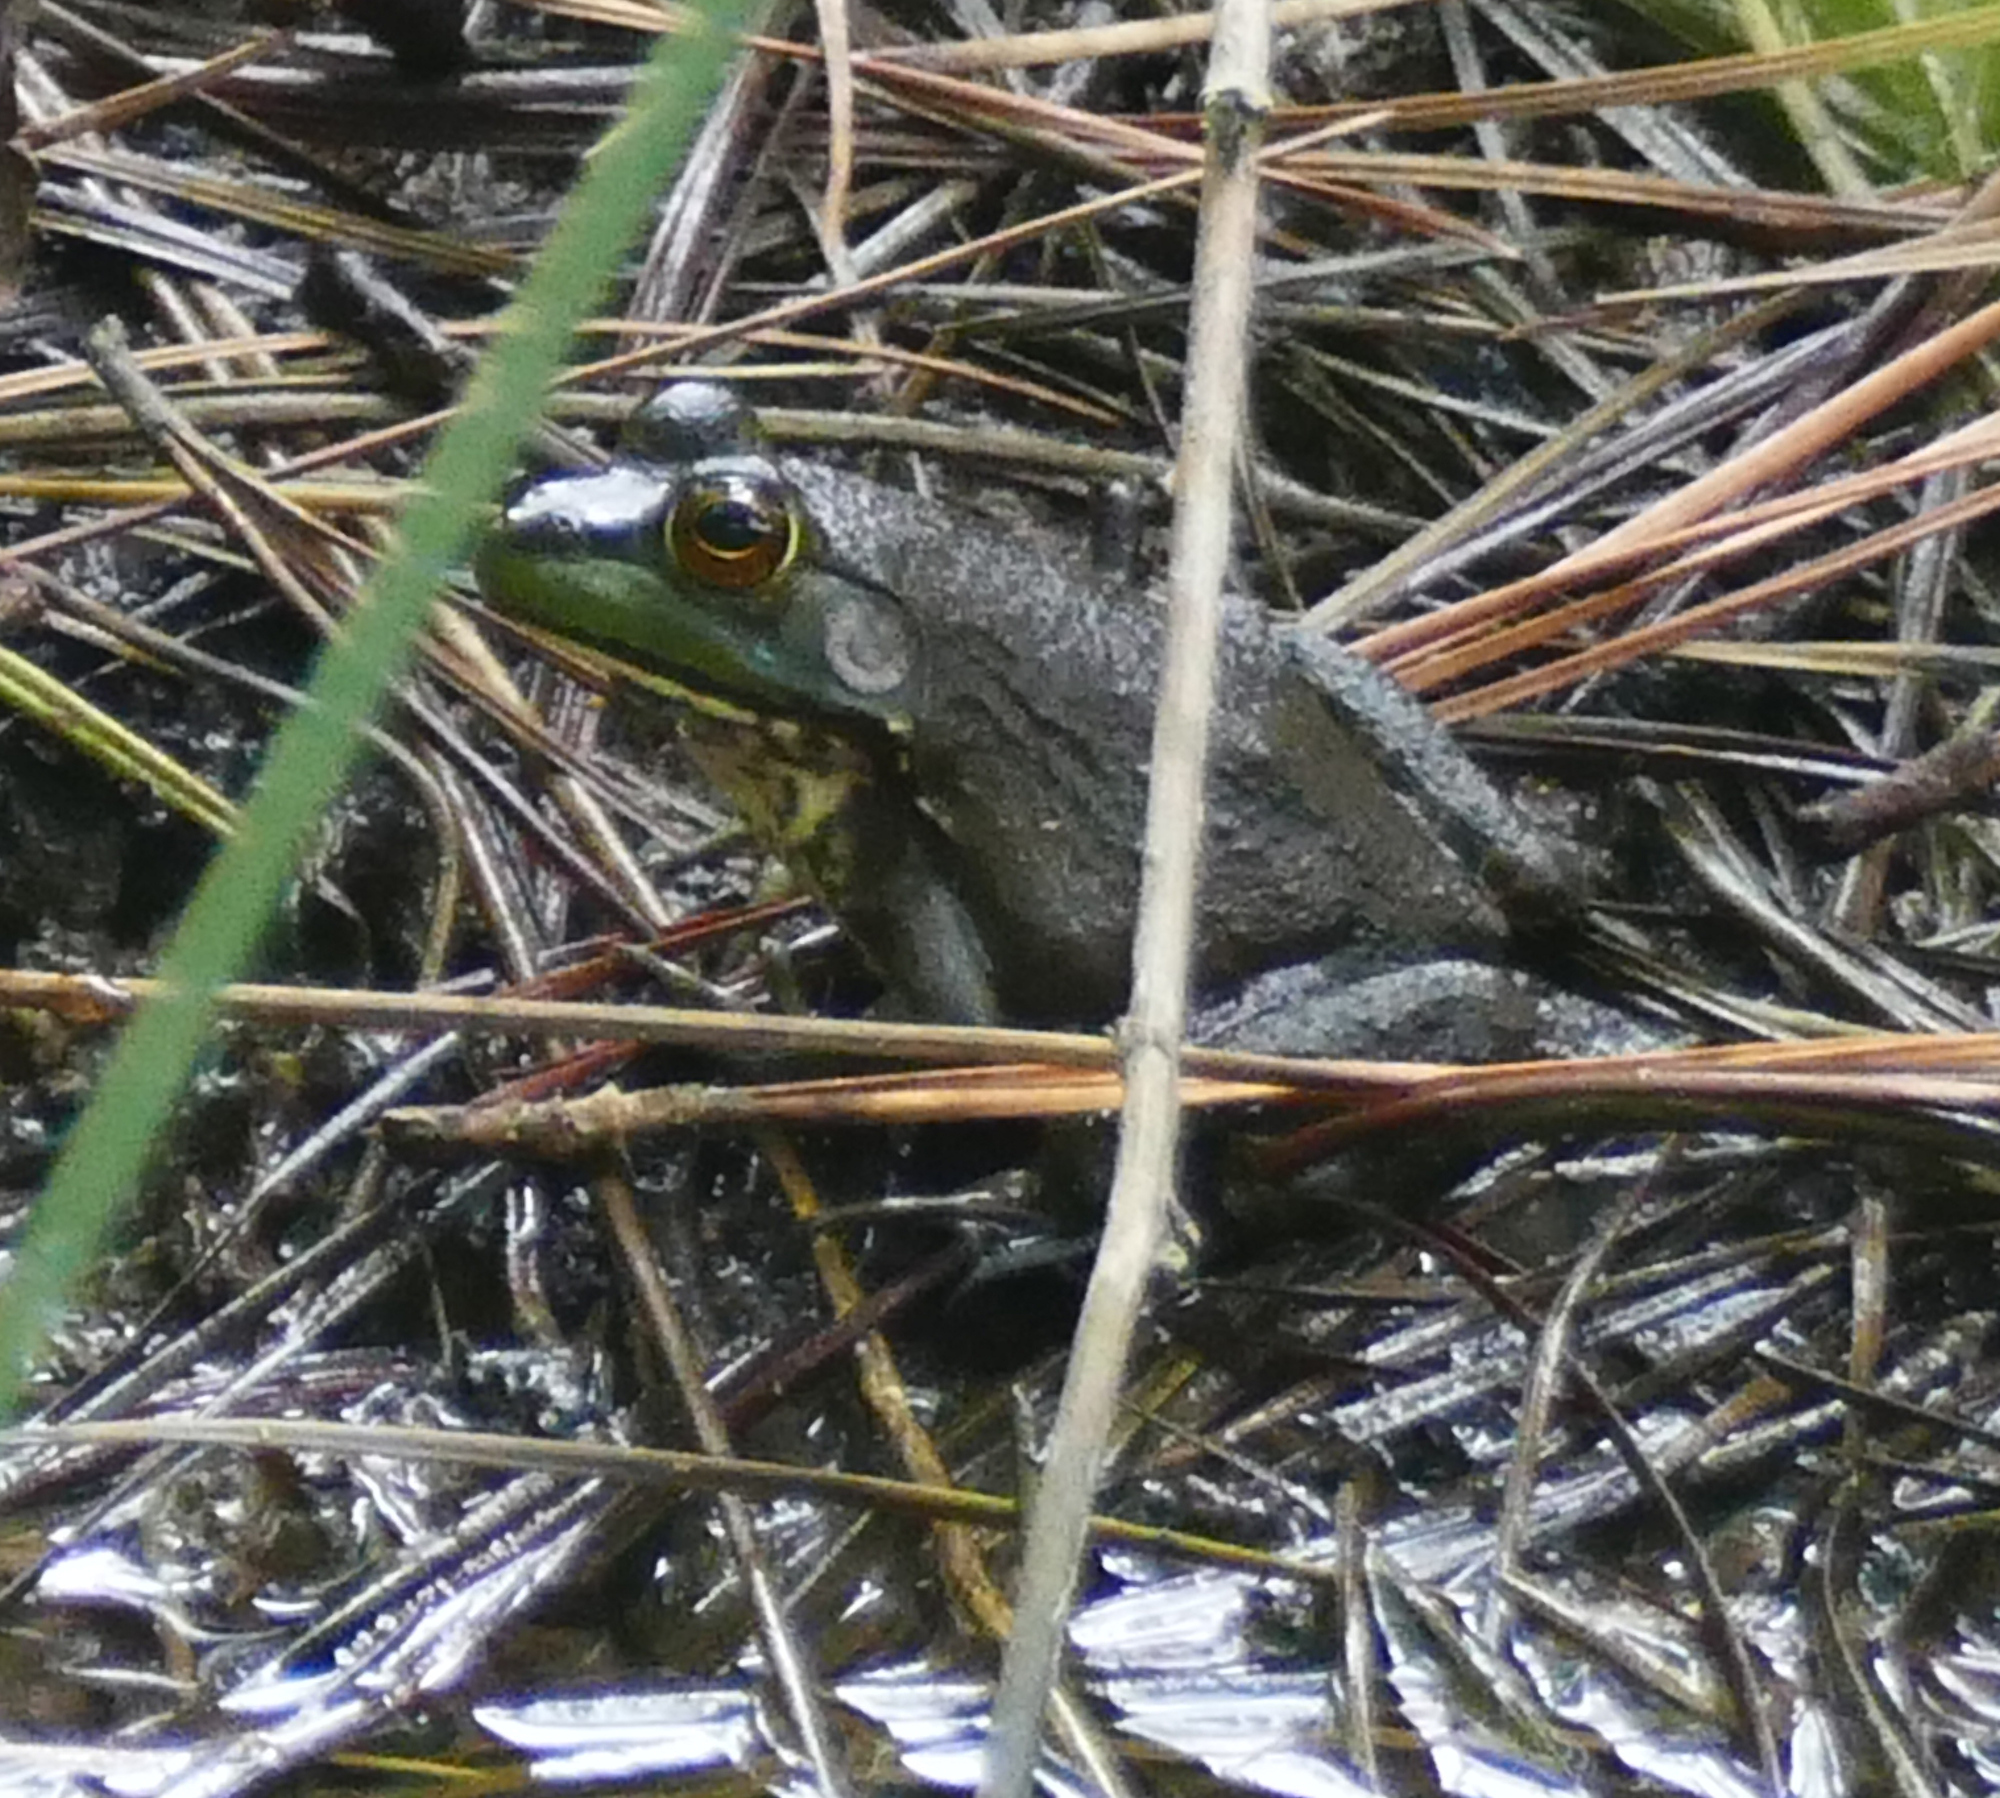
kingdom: Animalia
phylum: Chordata
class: Amphibia
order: Anura
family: Ranidae
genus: Lithobates
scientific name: Lithobates catesbeianus
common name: American bullfrog
